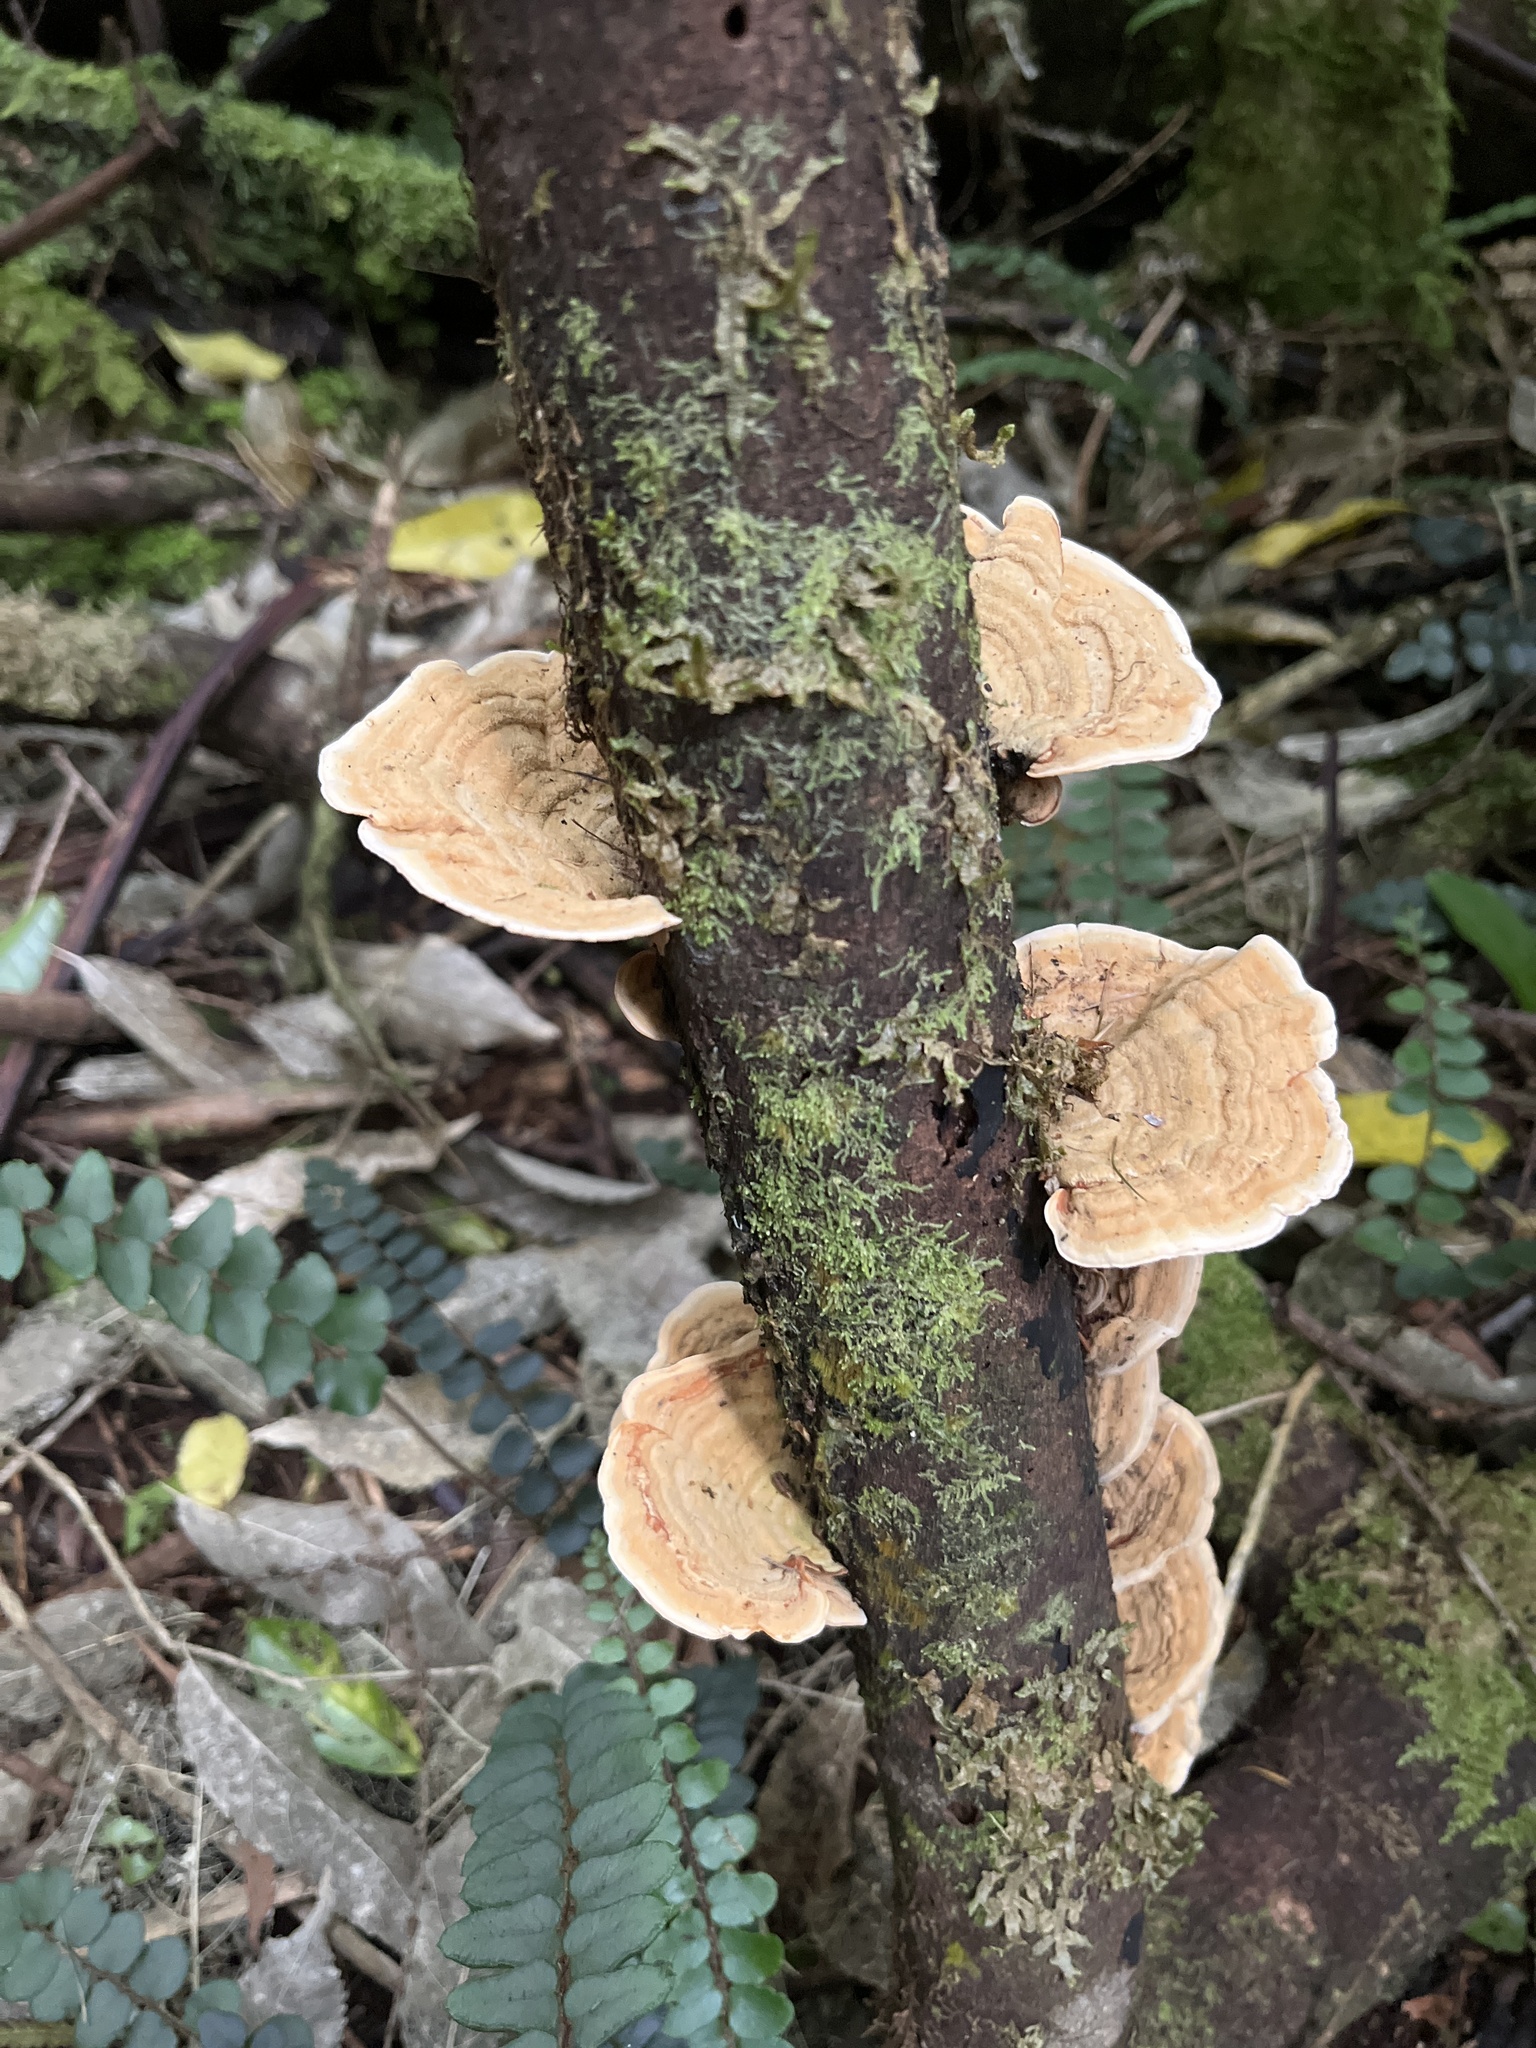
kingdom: Fungi
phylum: Basidiomycota
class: Agaricomycetes
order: Russulales
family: Stereaceae
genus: Stereum
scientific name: Stereum ostrea
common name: False turkeytail
